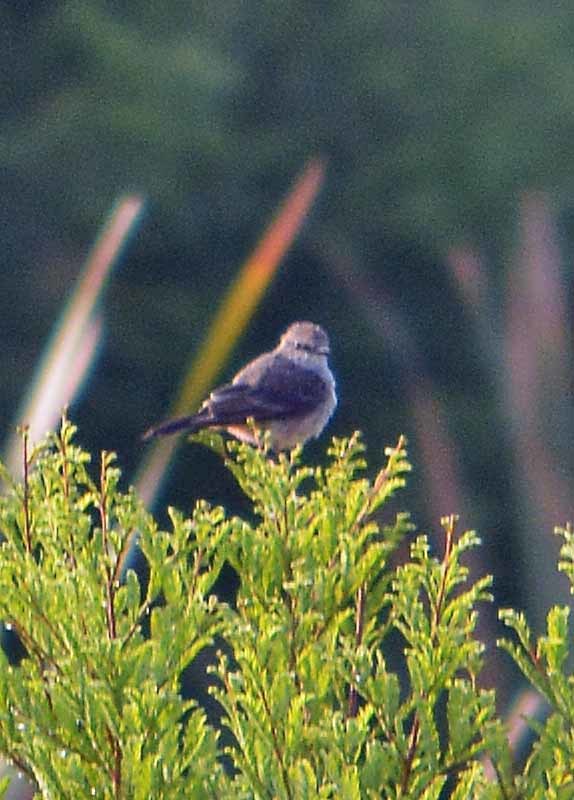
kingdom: Animalia
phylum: Chordata
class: Aves
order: Passeriformes
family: Tyrannidae
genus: Pyrocephalus
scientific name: Pyrocephalus rubinus
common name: Vermilion flycatcher
